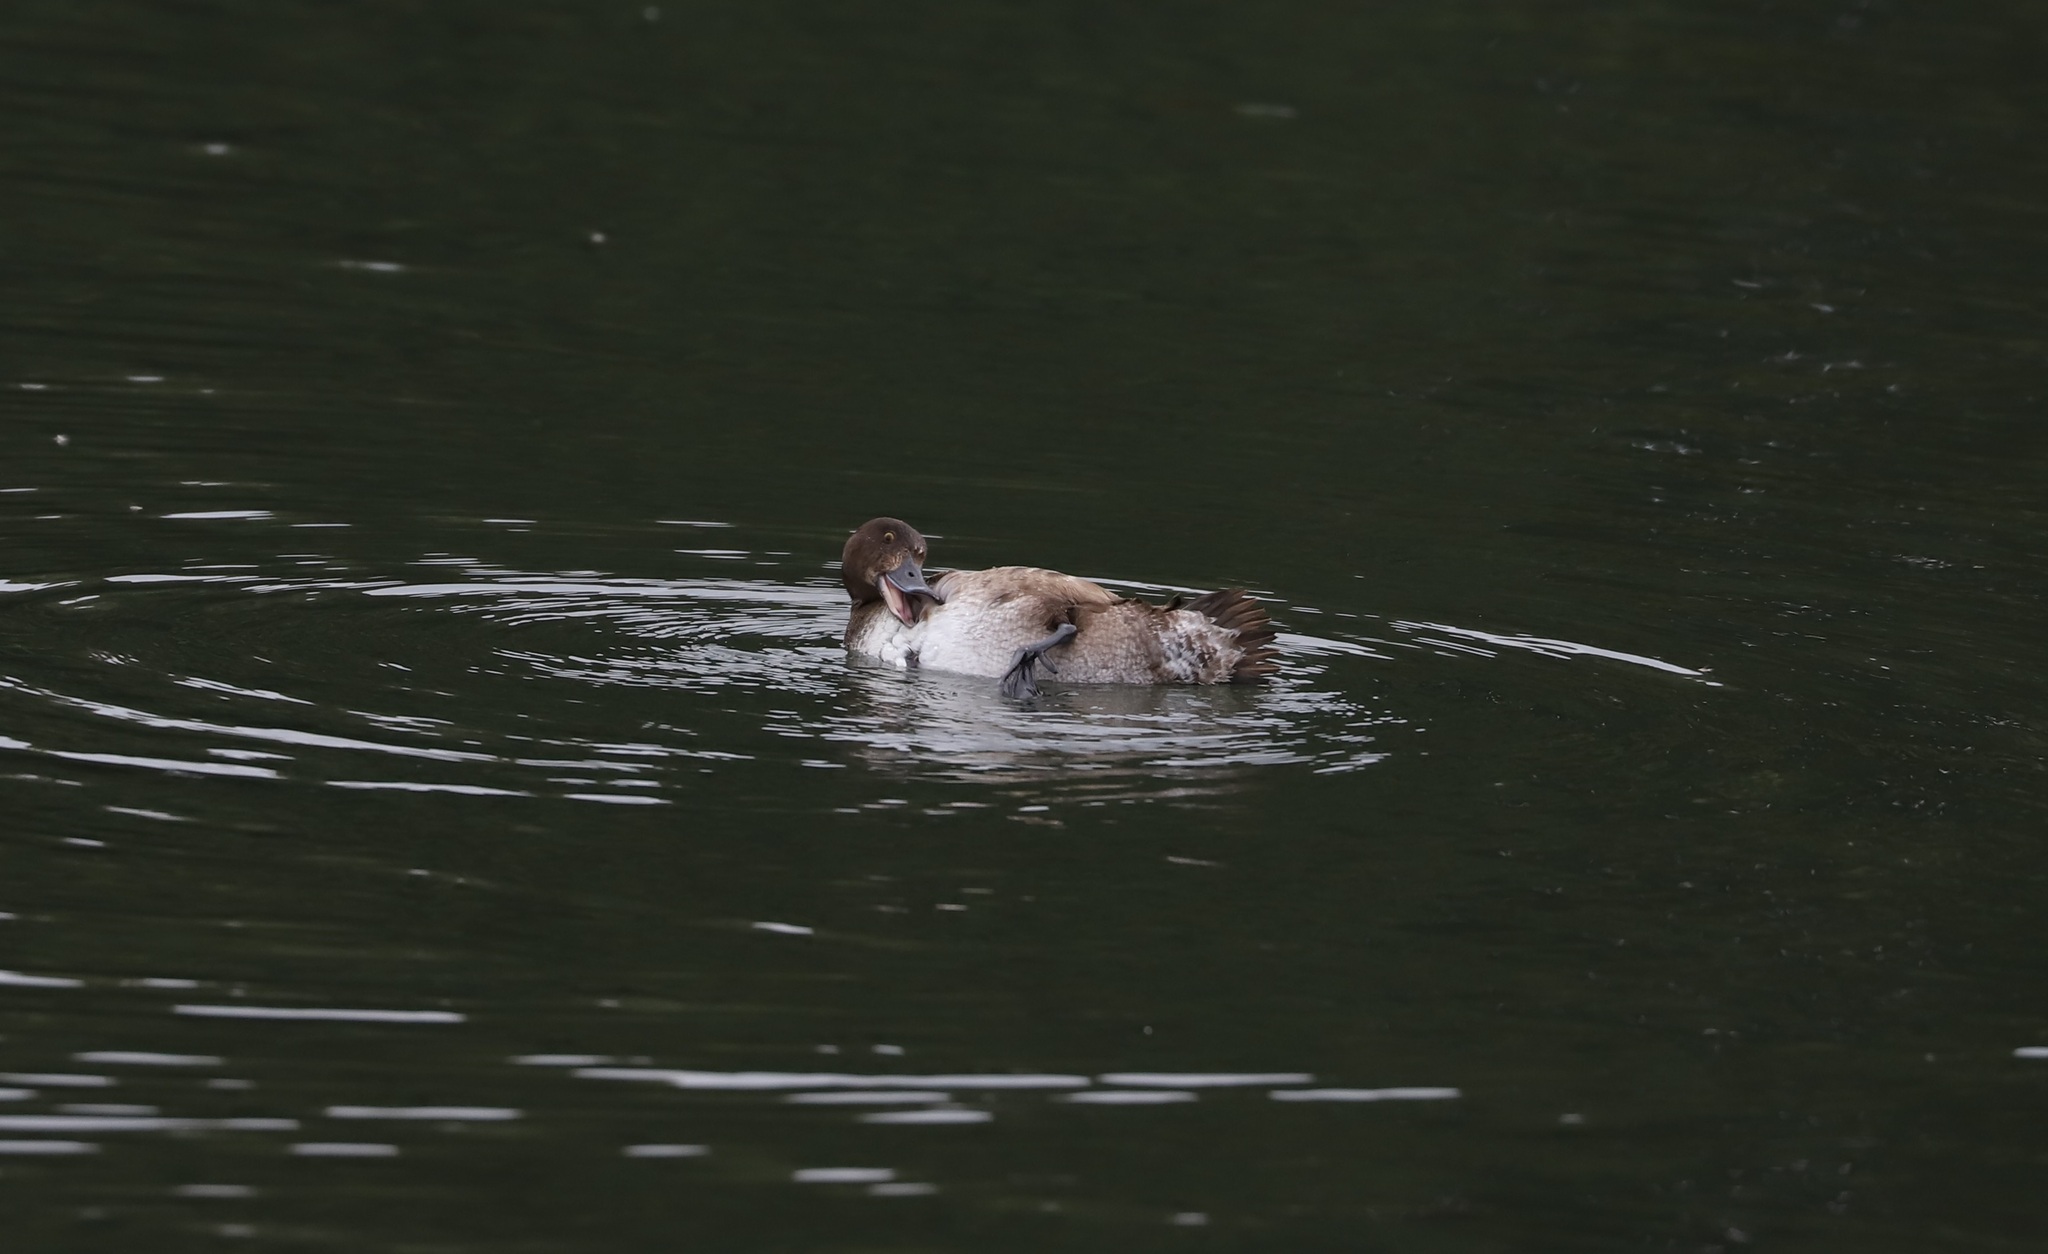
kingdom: Animalia
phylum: Chordata
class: Aves
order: Anseriformes
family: Anatidae
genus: Aythya
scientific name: Aythya fuligula
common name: Tufted duck
